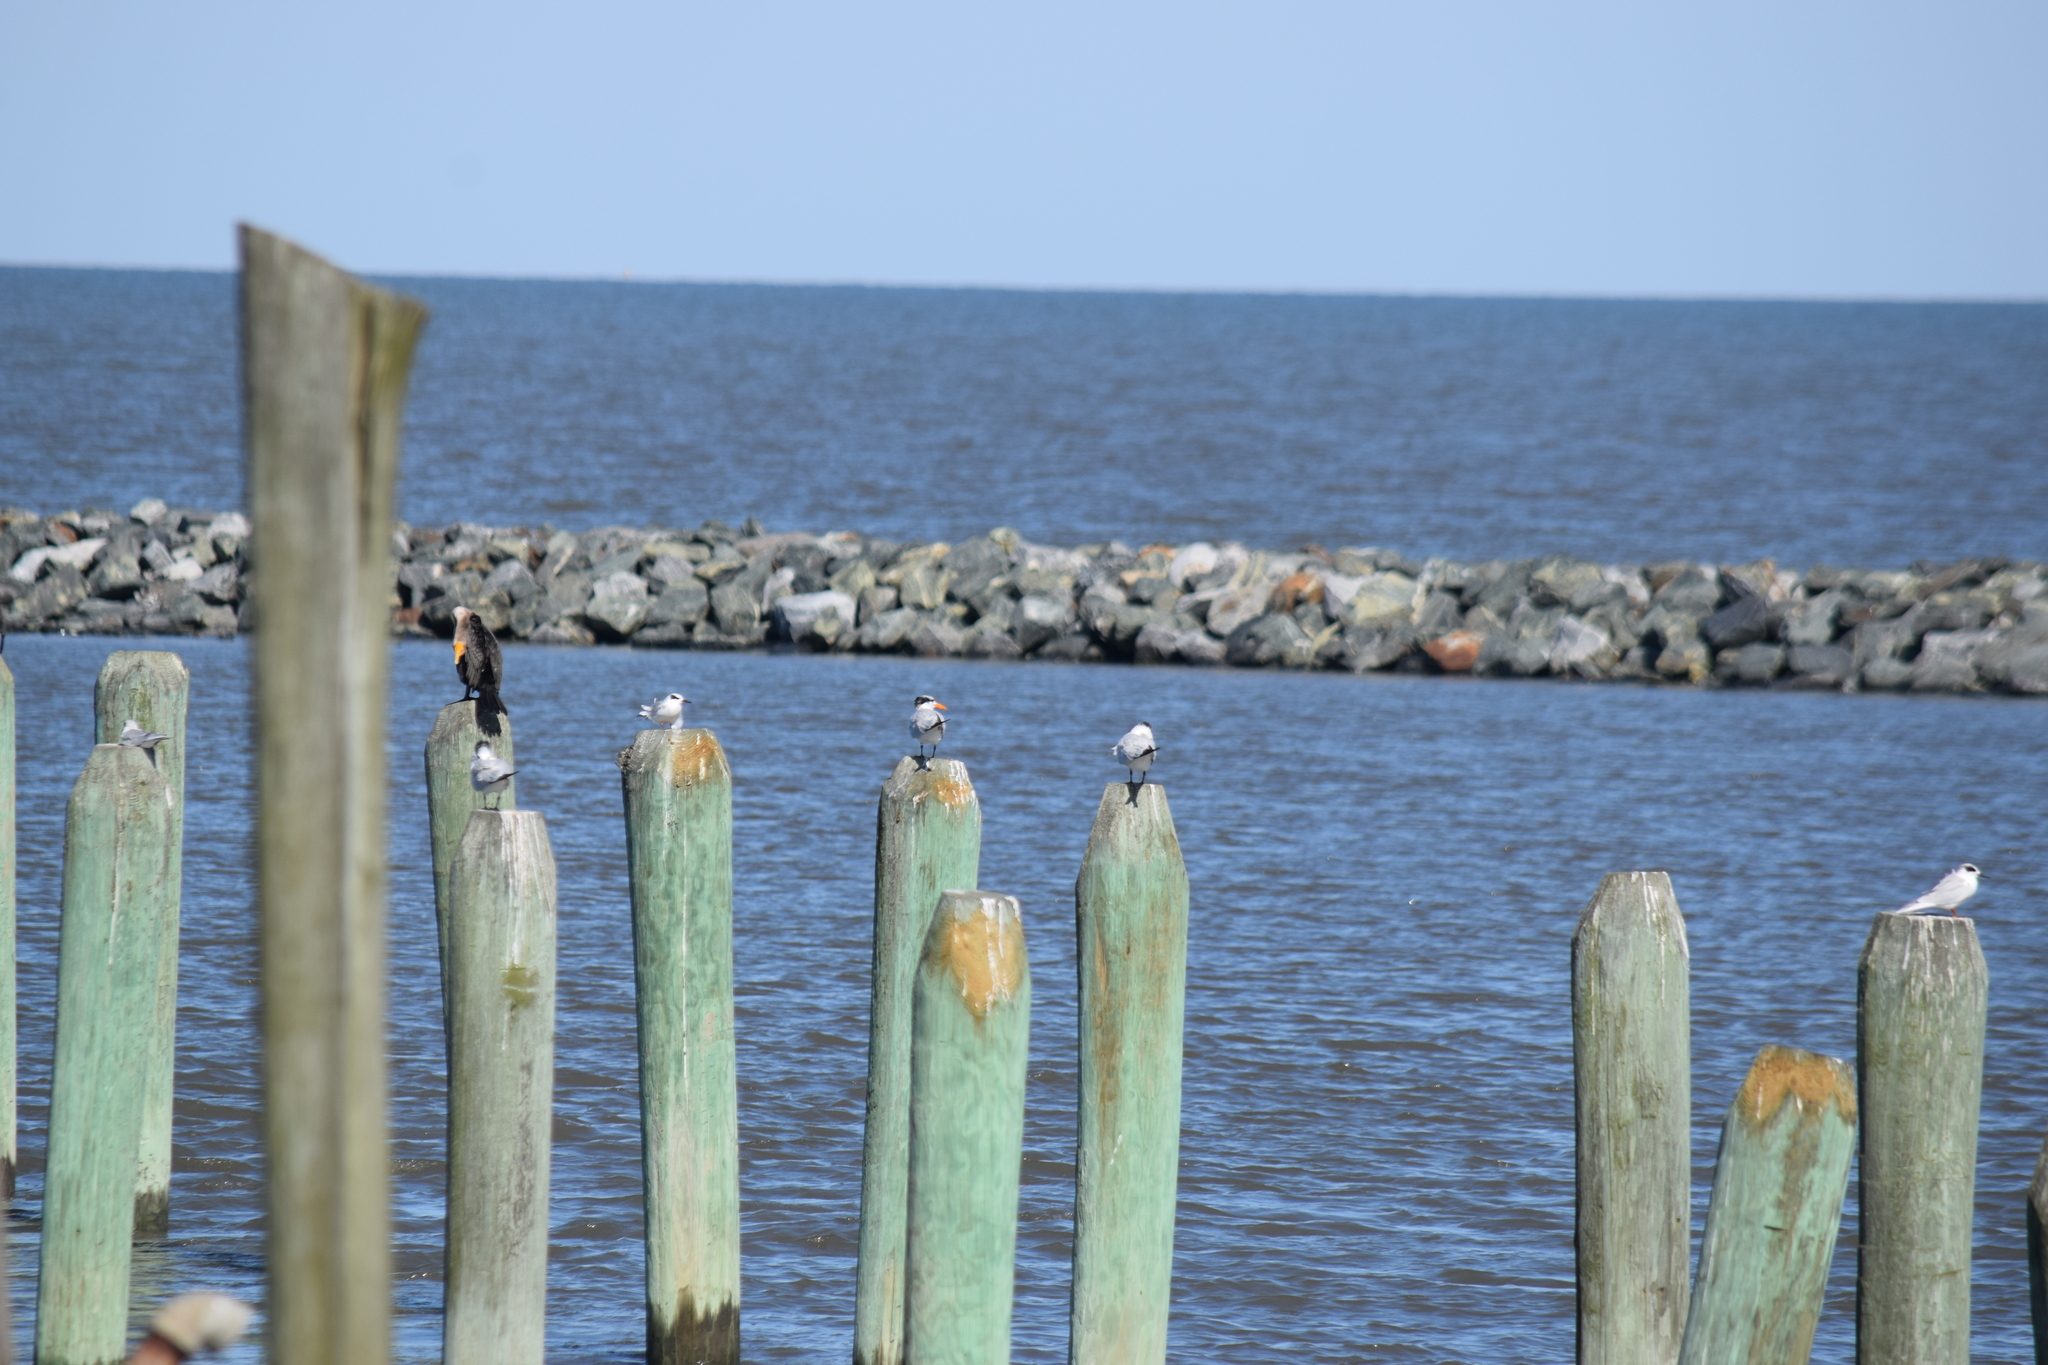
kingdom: Animalia
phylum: Chordata
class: Aves
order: Charadriiformes
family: Laridae
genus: Thalasseus
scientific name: Thalasseus maximus
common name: Royal tern
